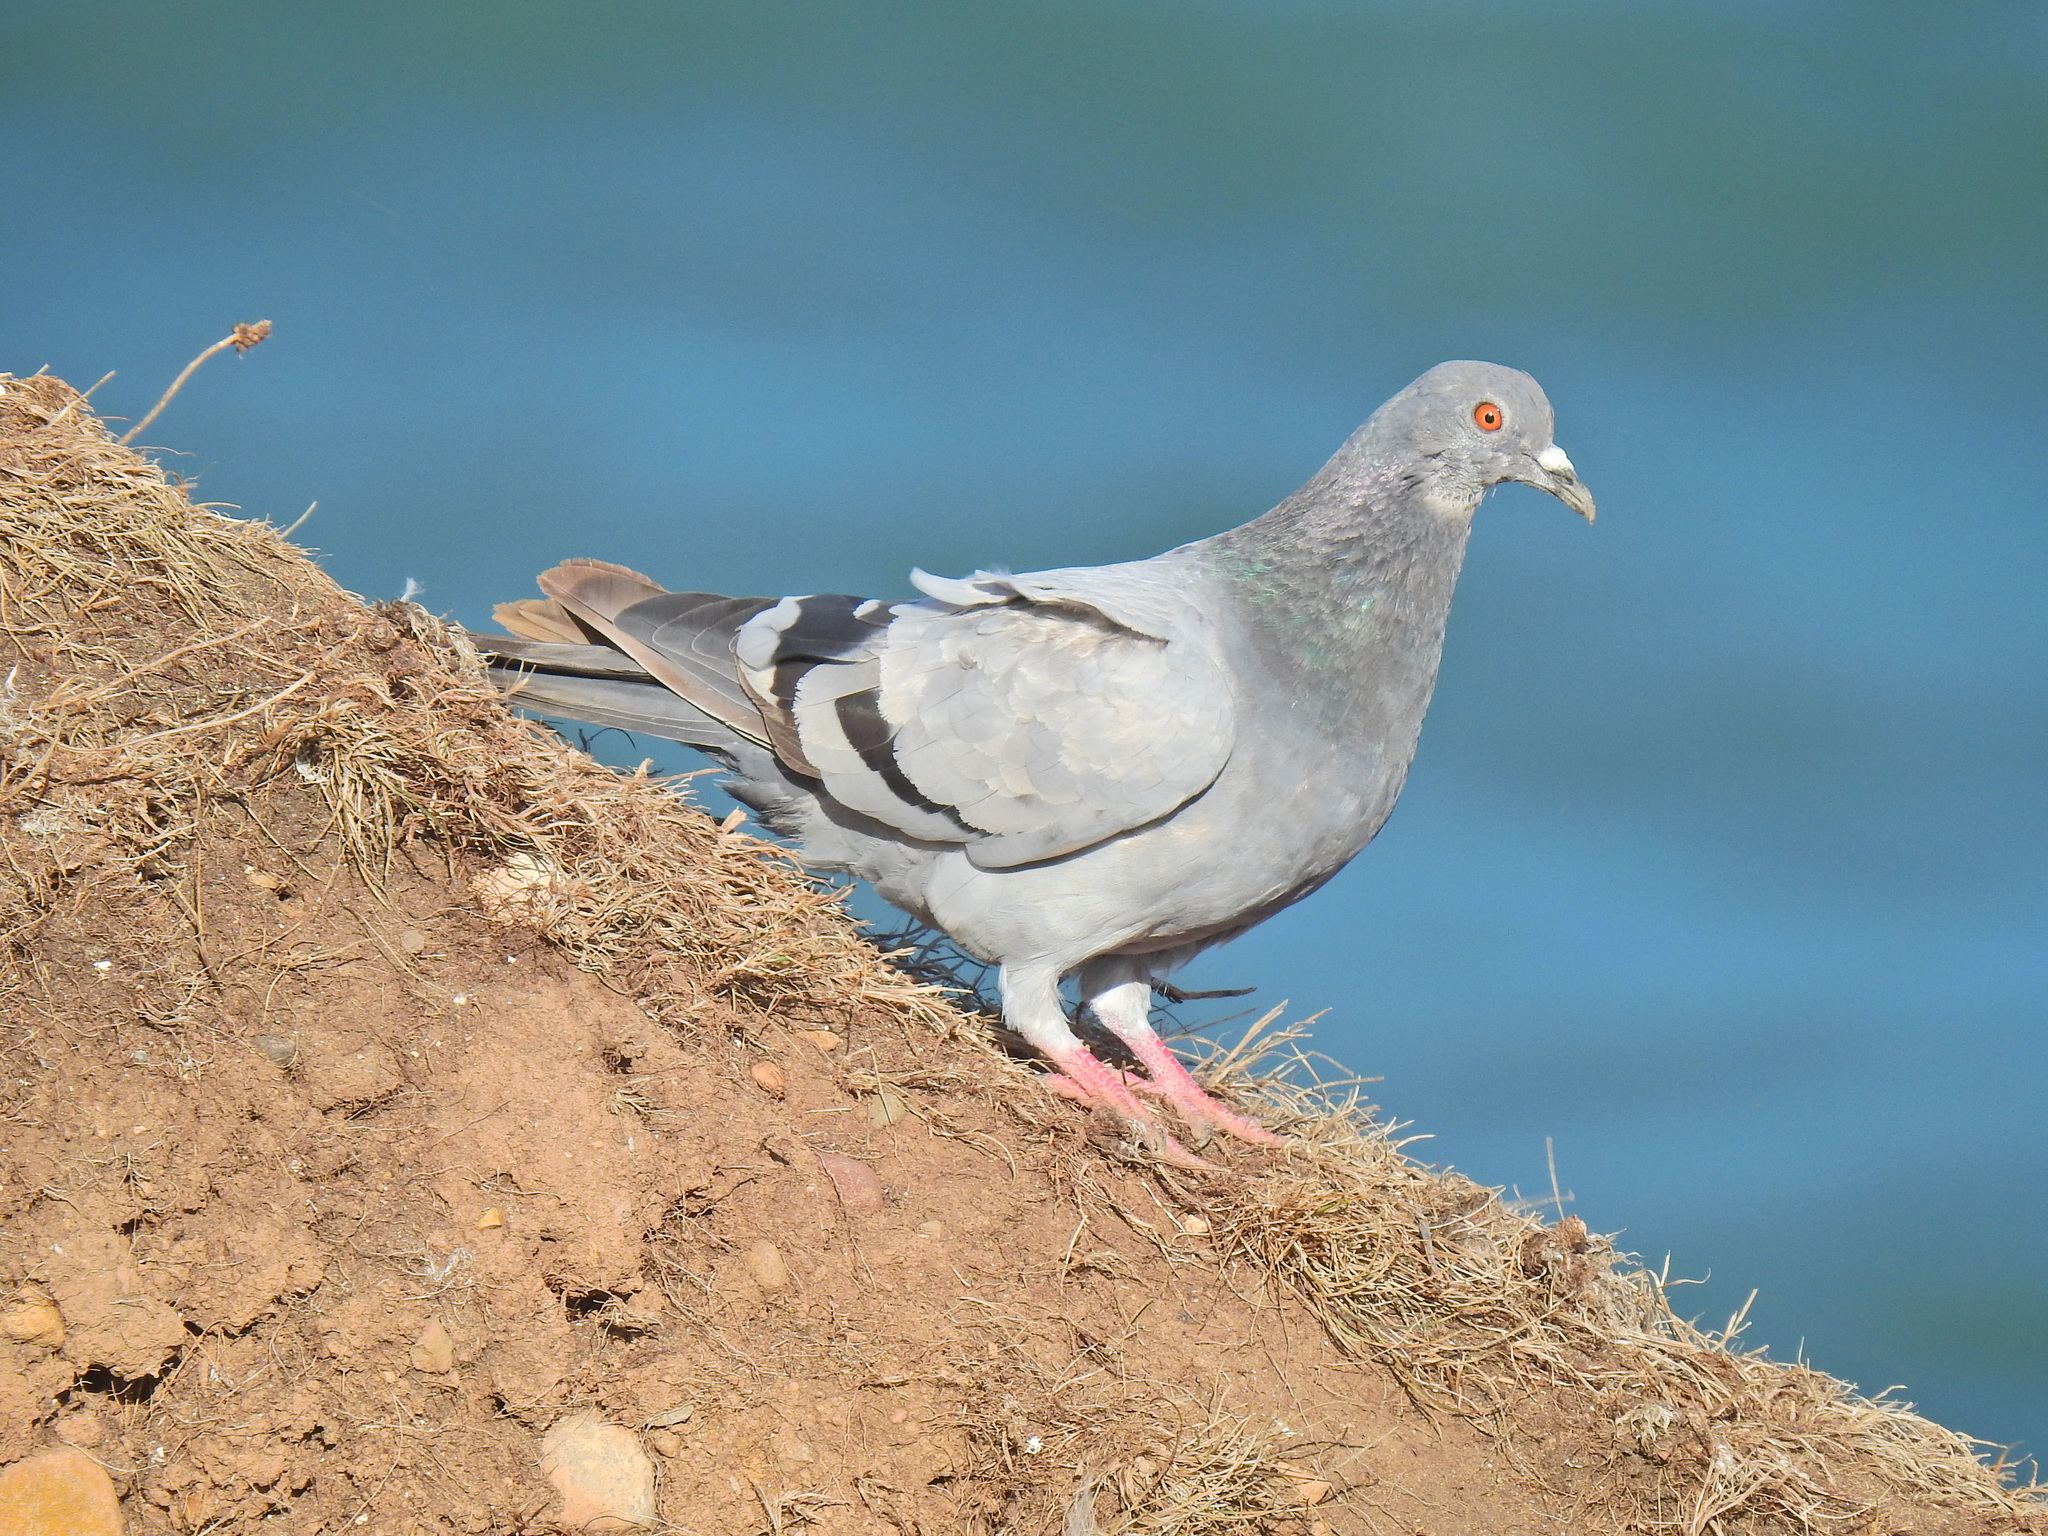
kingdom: Animalia
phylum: Chordata
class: Aves
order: Columbiformes
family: Columbidae
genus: Columba
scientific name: Columba livia
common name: Rock pigeon
